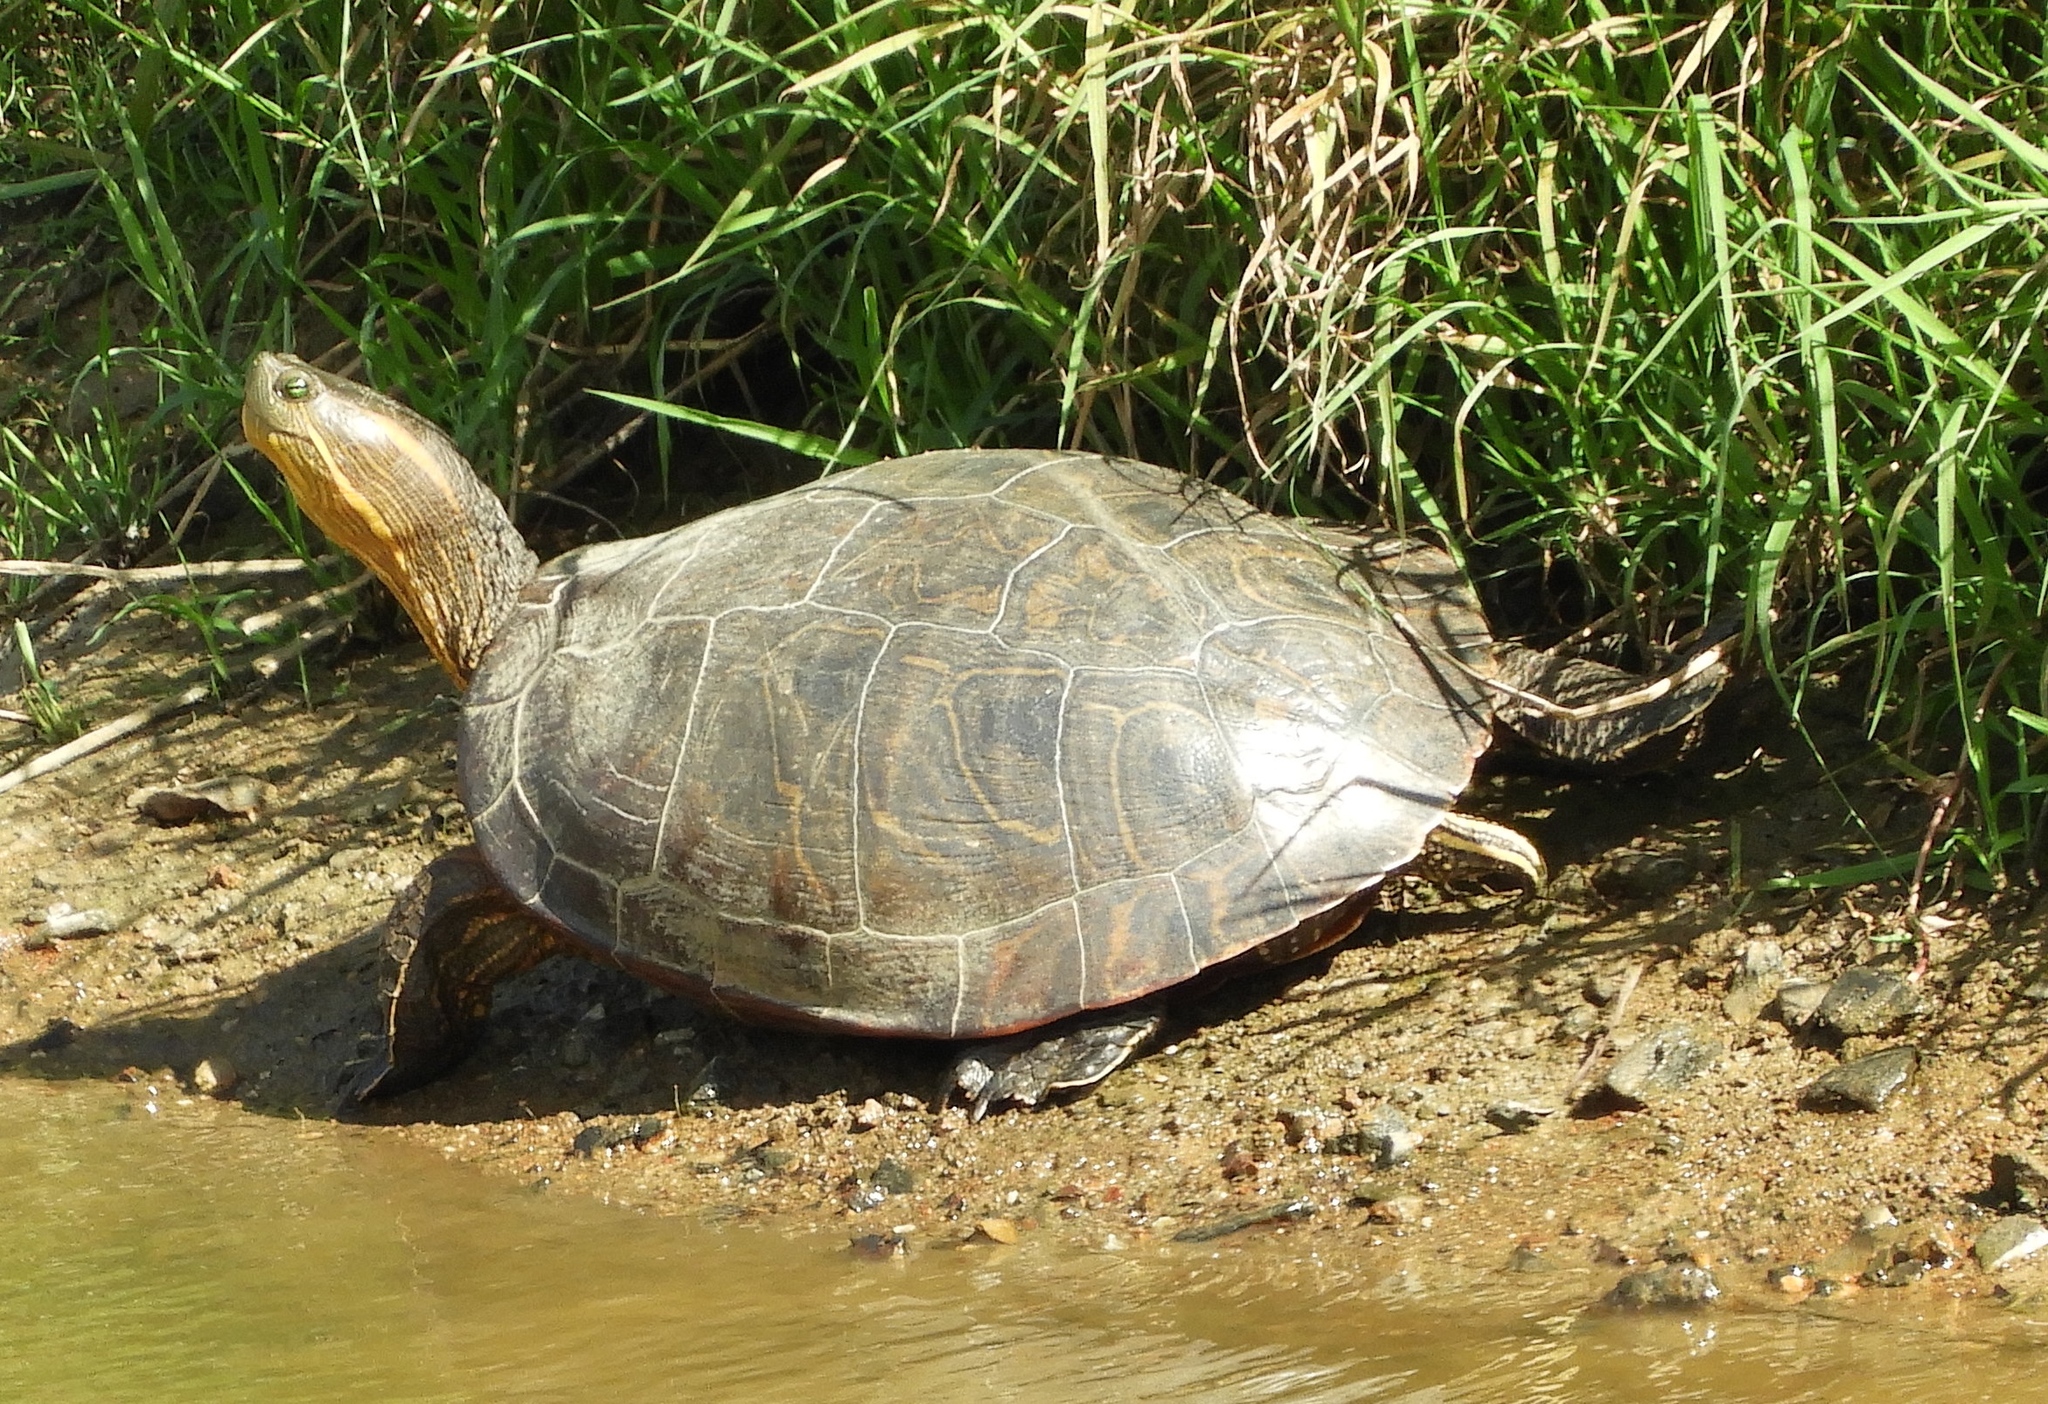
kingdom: Animalia
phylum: Chordata
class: Testudines
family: Emydidae
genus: Trachemys
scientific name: Trachemys ornata
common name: Ornate slider
